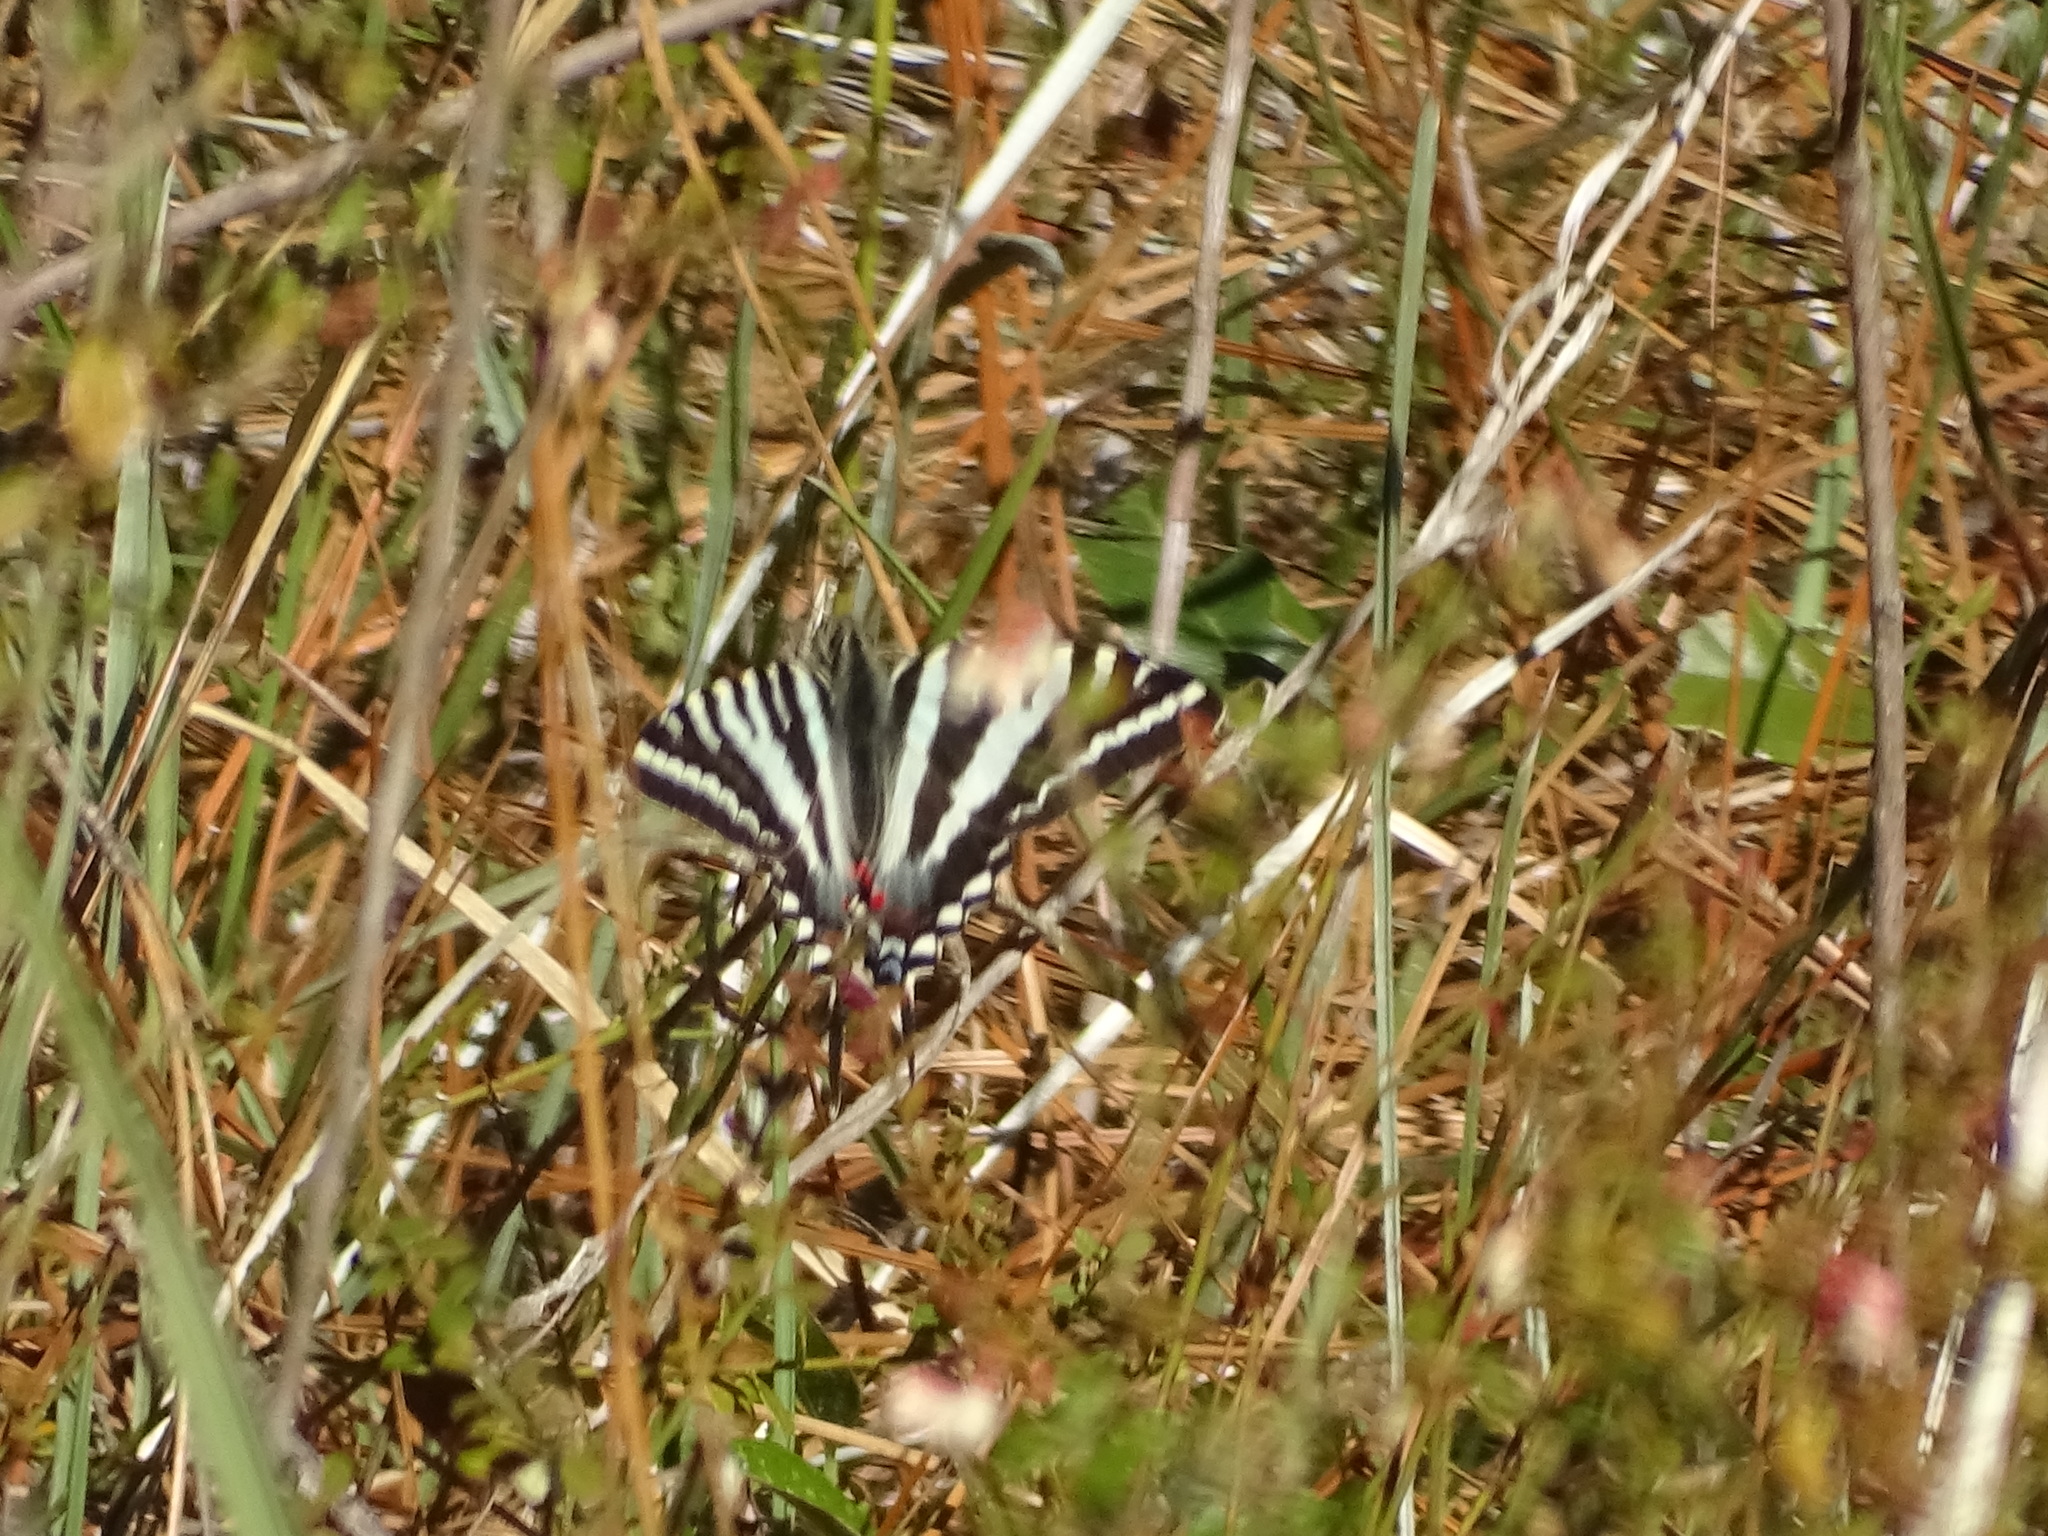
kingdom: Animalia
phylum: Arthropoda
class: Insecta
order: Lepidoptera
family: Papilionidae
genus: Protographium
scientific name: Protographium marcellus
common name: Zebra swallowtail
